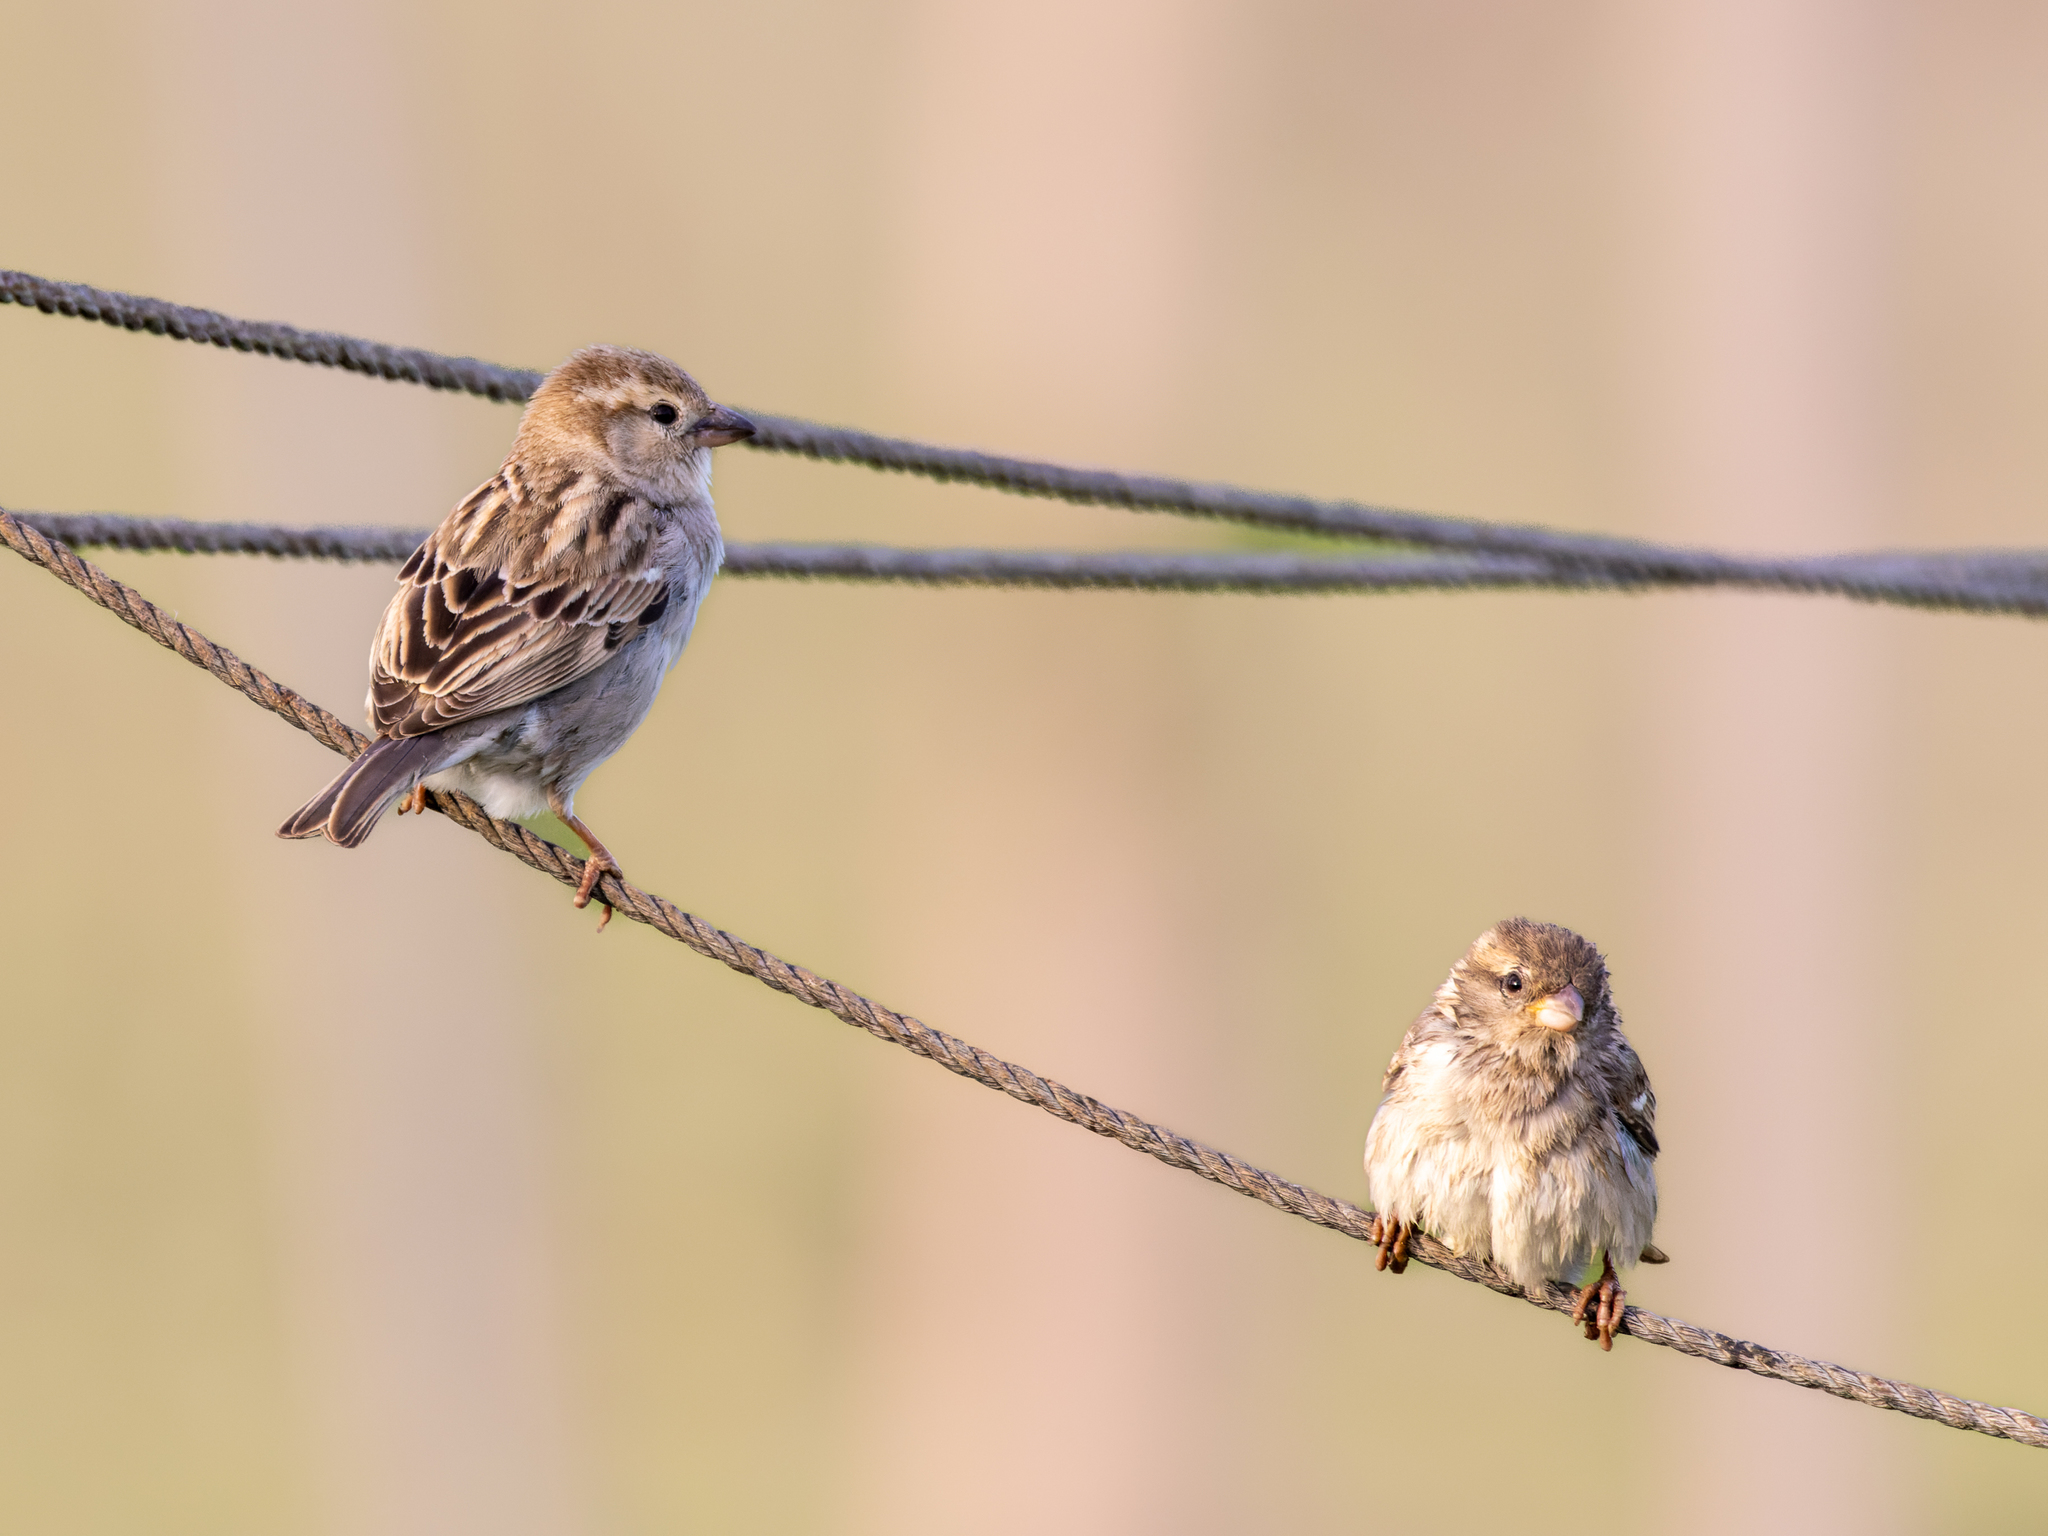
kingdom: Animalia
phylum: Chordata
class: Aves
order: Passeriformes
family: Passeridae
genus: Passer
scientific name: Passer domesticus
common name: House sparrow
